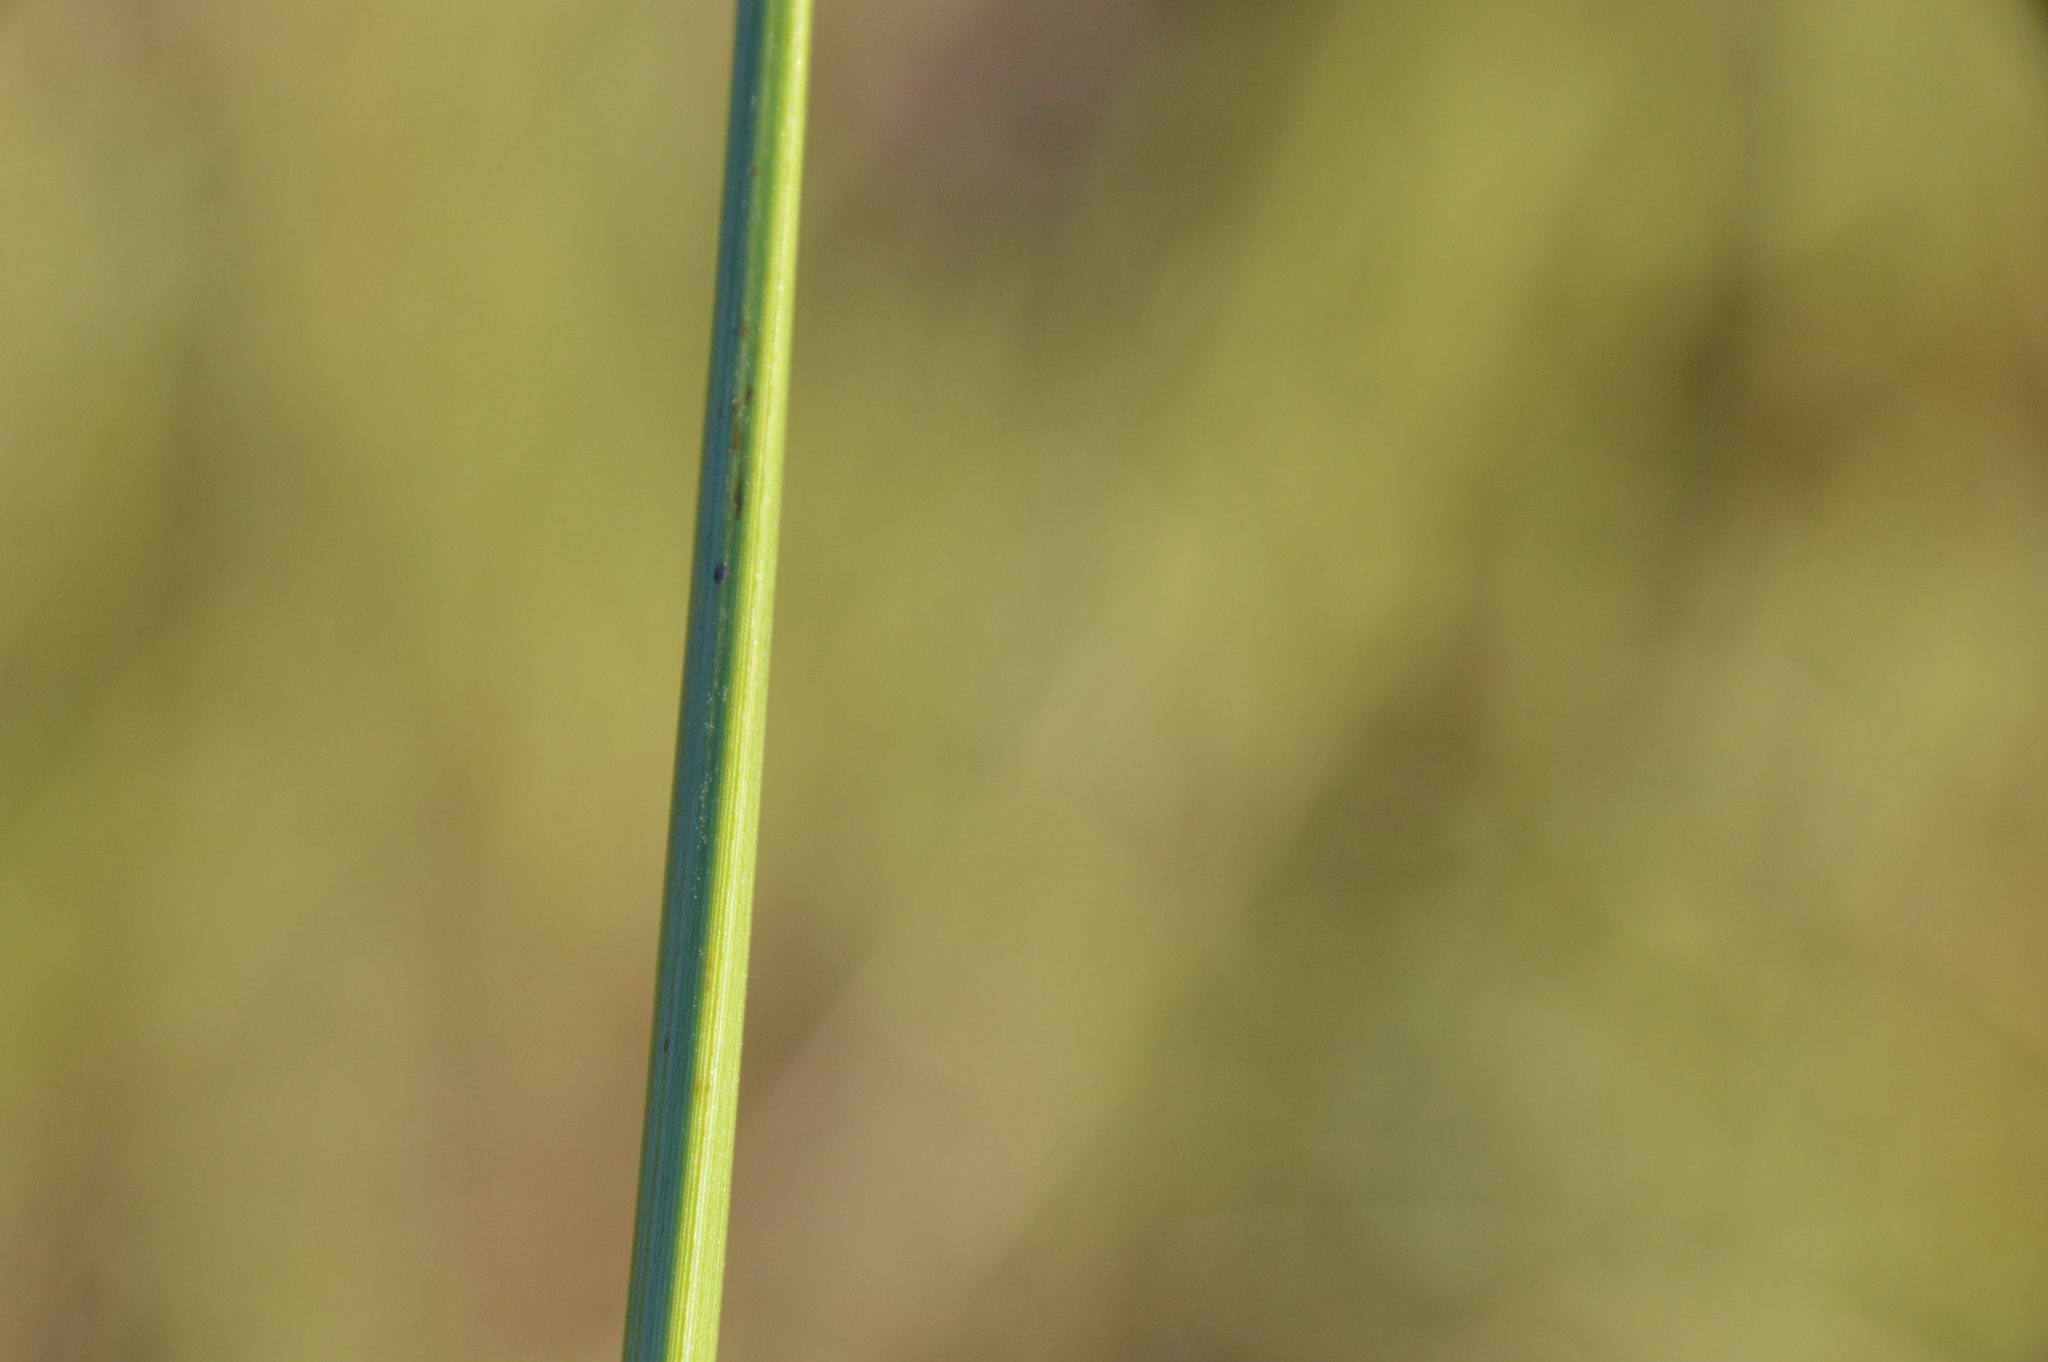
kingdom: Plantae
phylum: Tracheophyta
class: Liliopsida
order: Poales
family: Cyperaceae
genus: Cyperus
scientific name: Cyperus entrerianus
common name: Woodrush flatsedge
